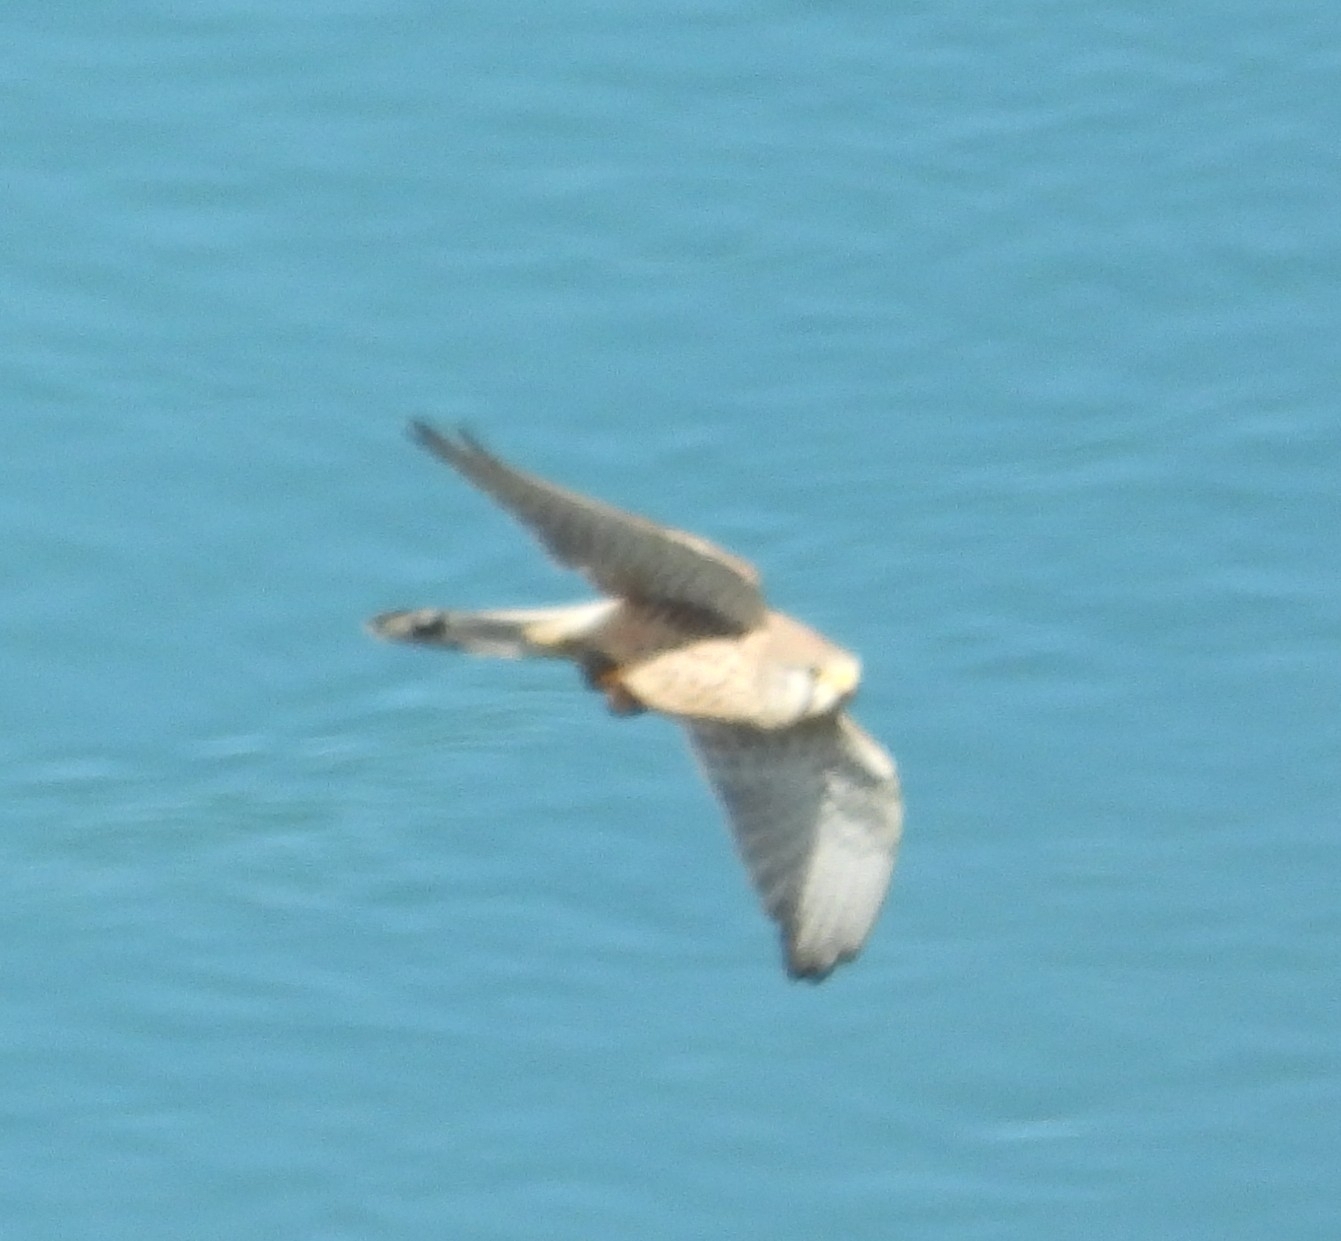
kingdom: Animalia
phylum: Chordata
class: Aves
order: Falconiformes
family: Falconidae
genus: Falco
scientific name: Falco tinnunculus
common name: Common kestrel
